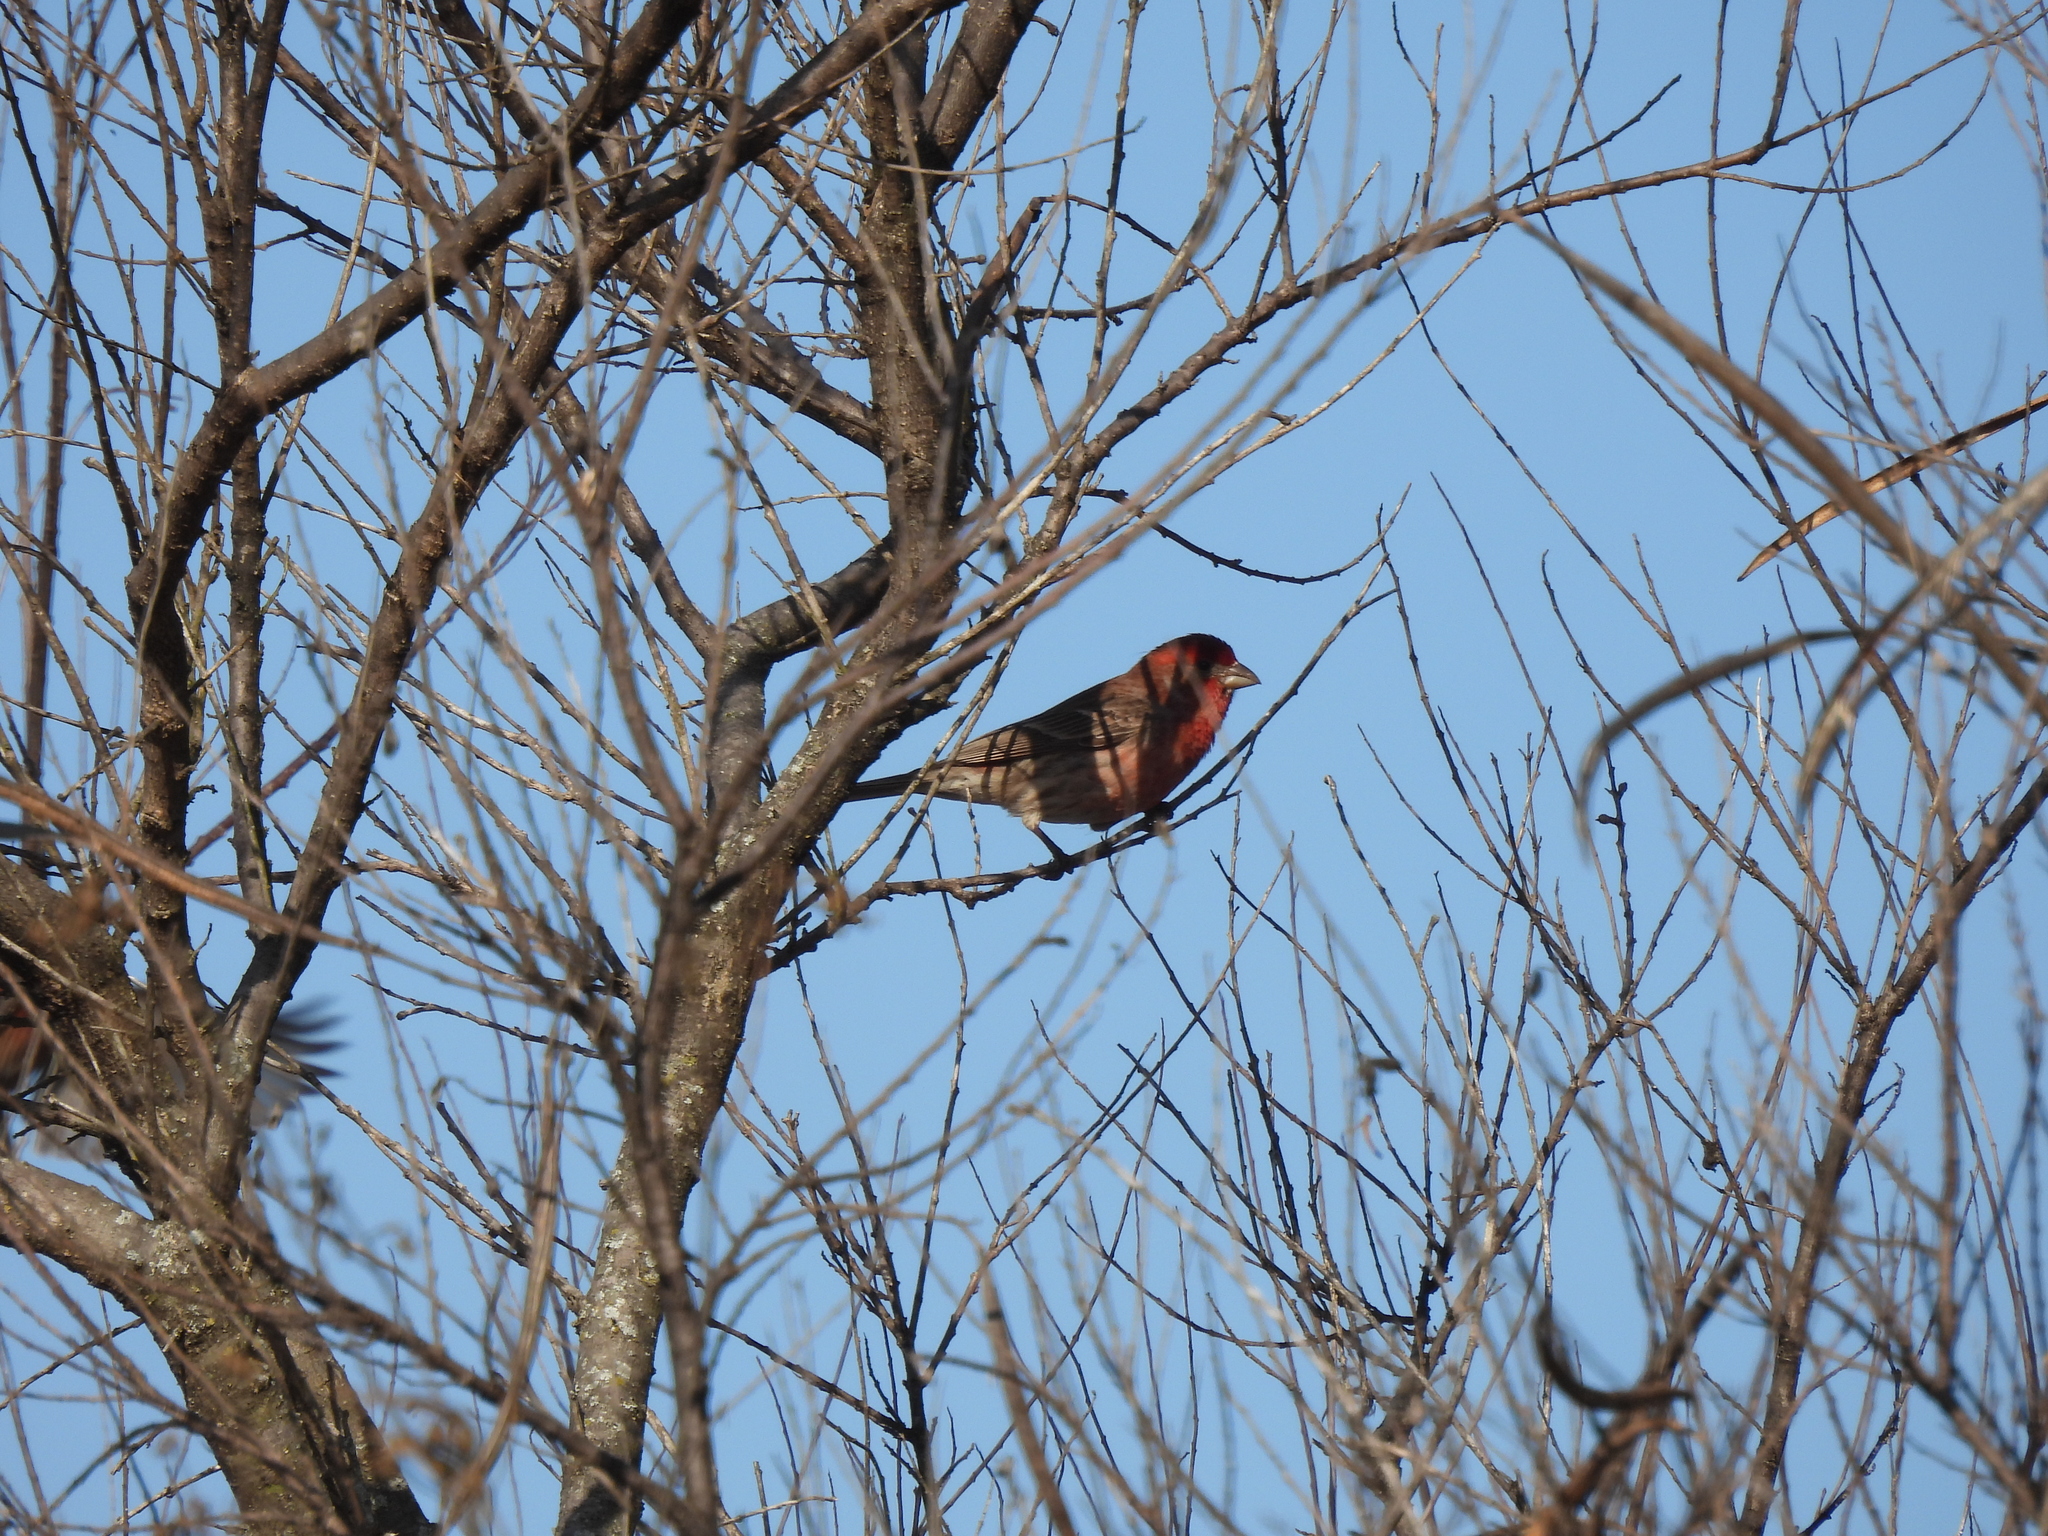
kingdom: Animalia
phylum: Chordata
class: Aves
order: Passeriformes
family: Fringillidae
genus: Haemorhous
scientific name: Haemorhous mexicanus
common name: House finch
